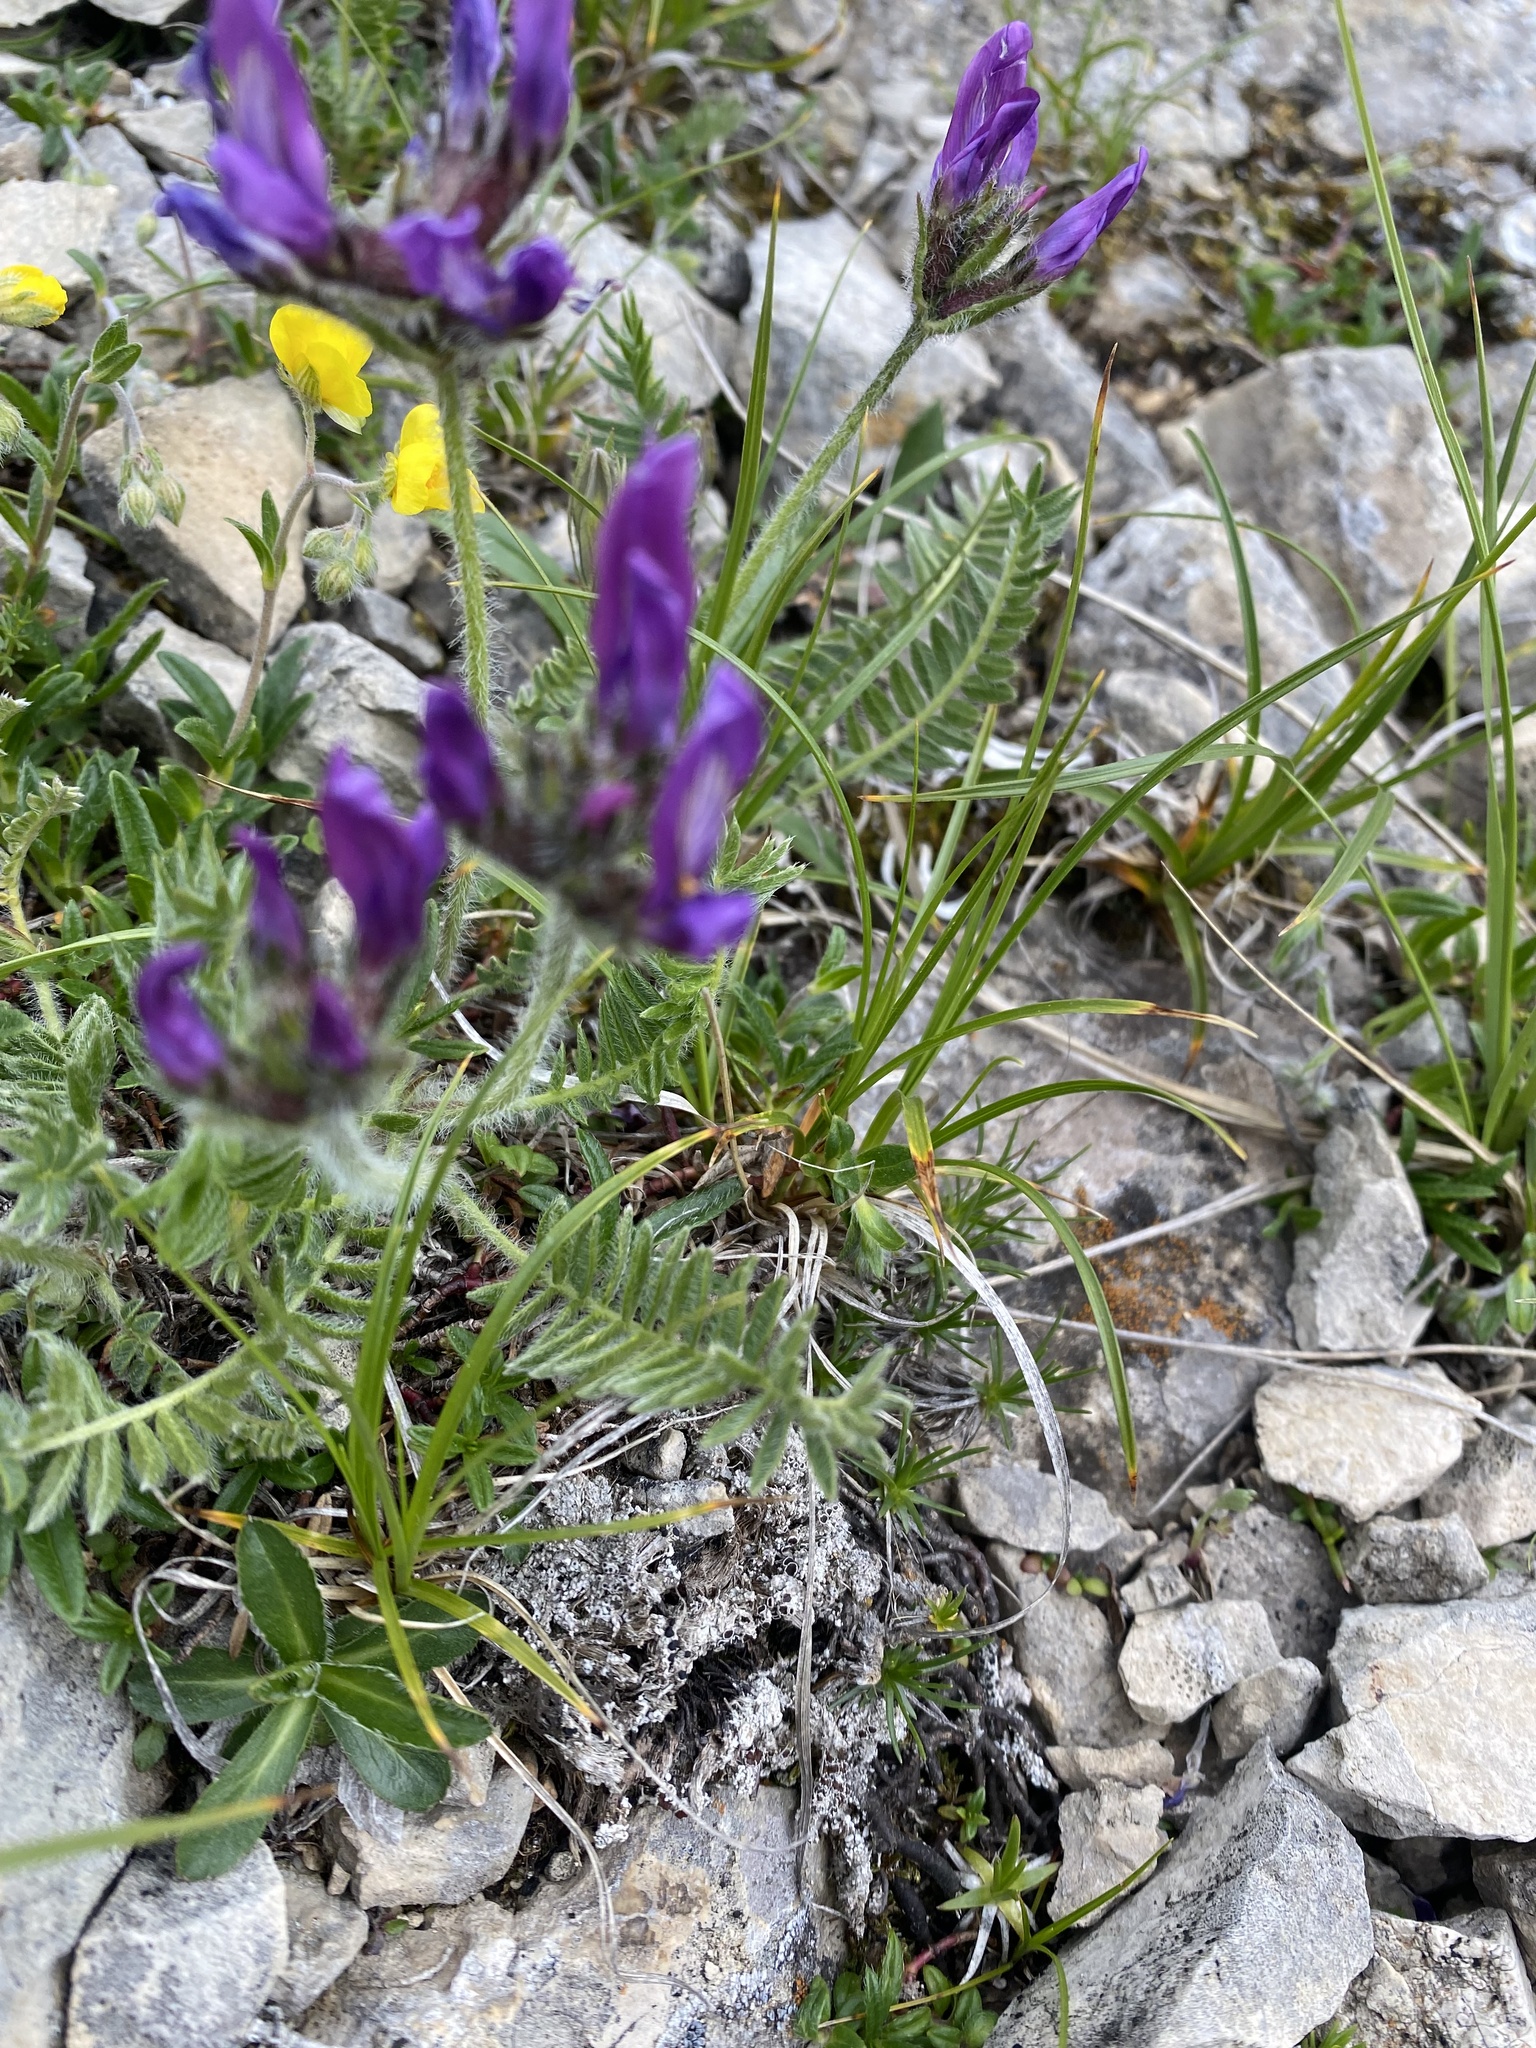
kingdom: Plantae
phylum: Tracheophyta
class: Magnoliopsida
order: Fabales
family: Fabaceae
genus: Oxytropis
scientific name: Oxytropis lazica
